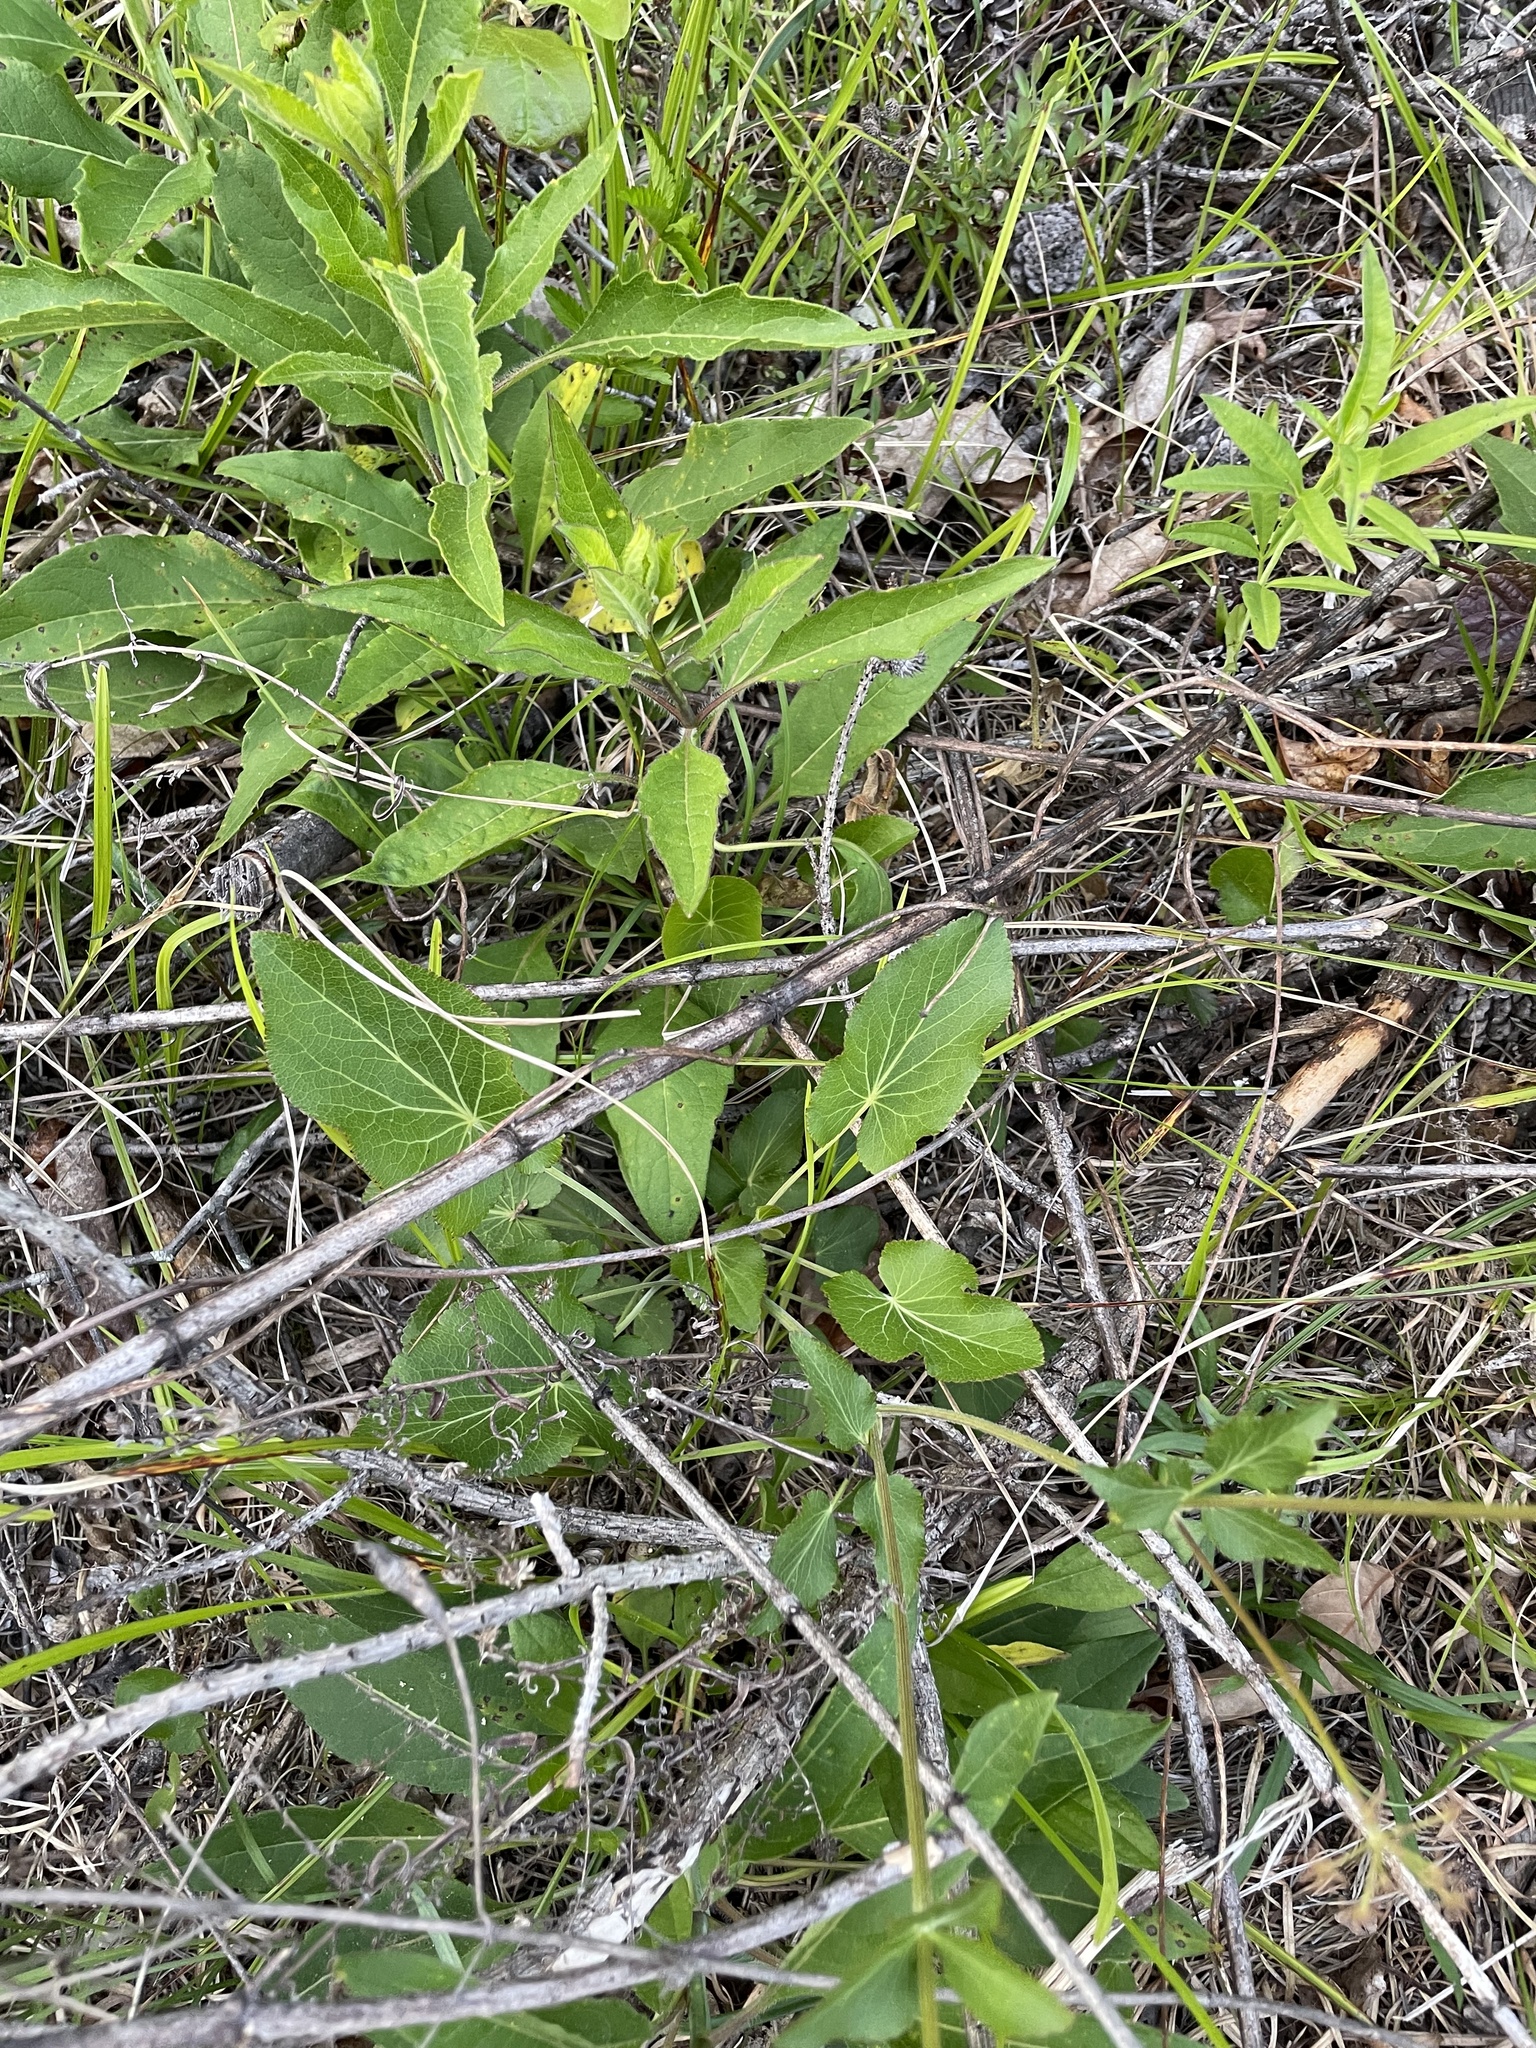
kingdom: Plantae
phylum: Tracheophyta
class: Magnoliopsida
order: Apiales
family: Apiaceae
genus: Zizia
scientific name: Zizia aptera
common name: Heart-leaved alexanders
